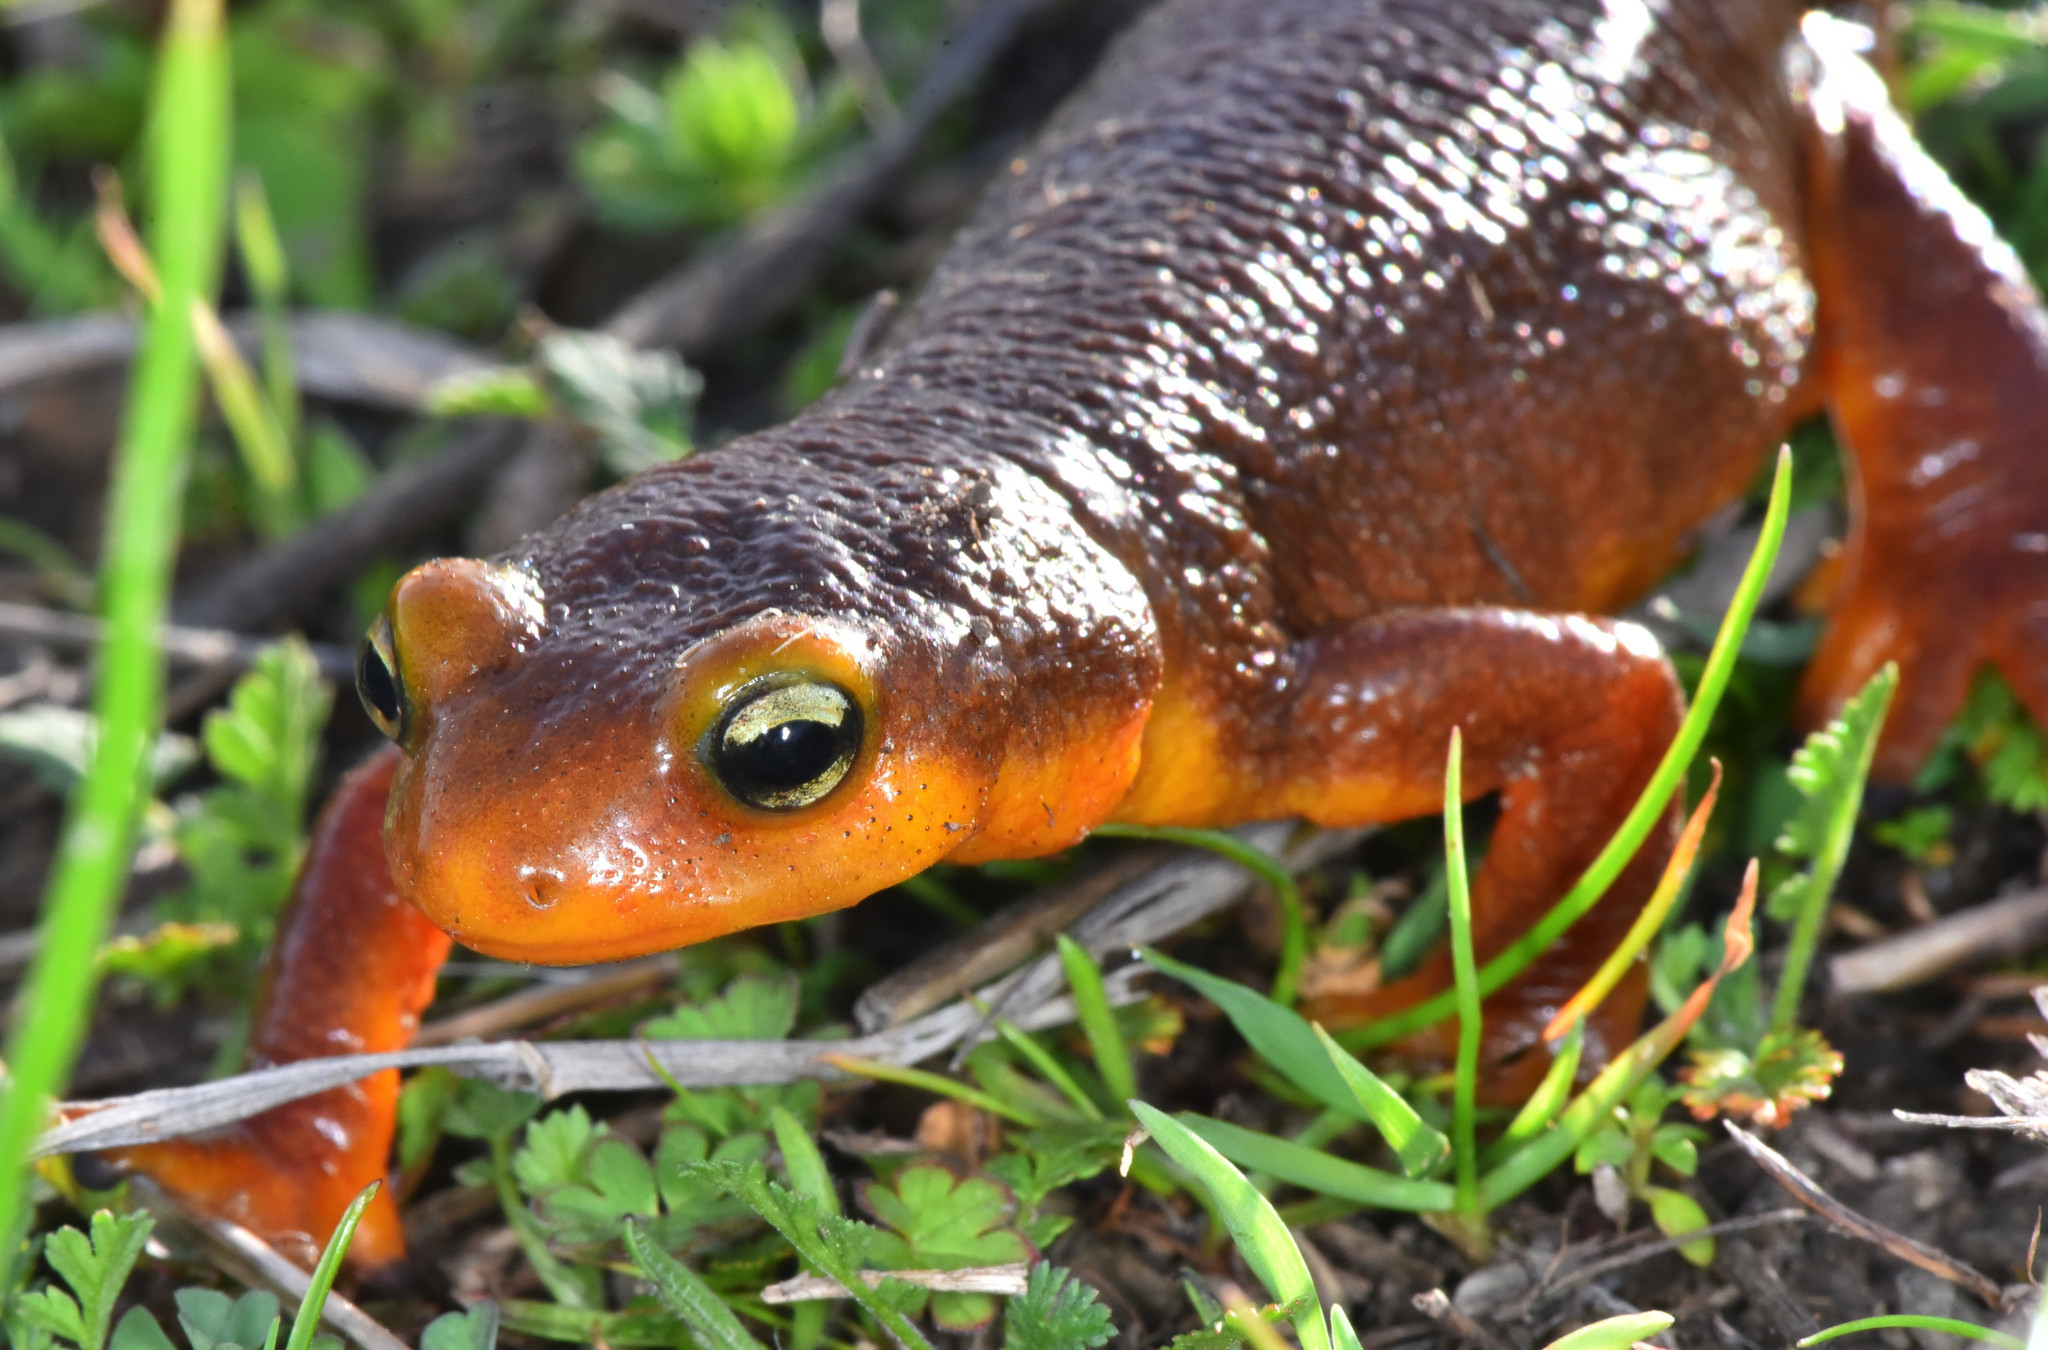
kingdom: Animalia
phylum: Chordata
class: Amphibia
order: Caudata
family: Salamandridae
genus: Taricha
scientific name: Taricha torosa
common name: California newt
